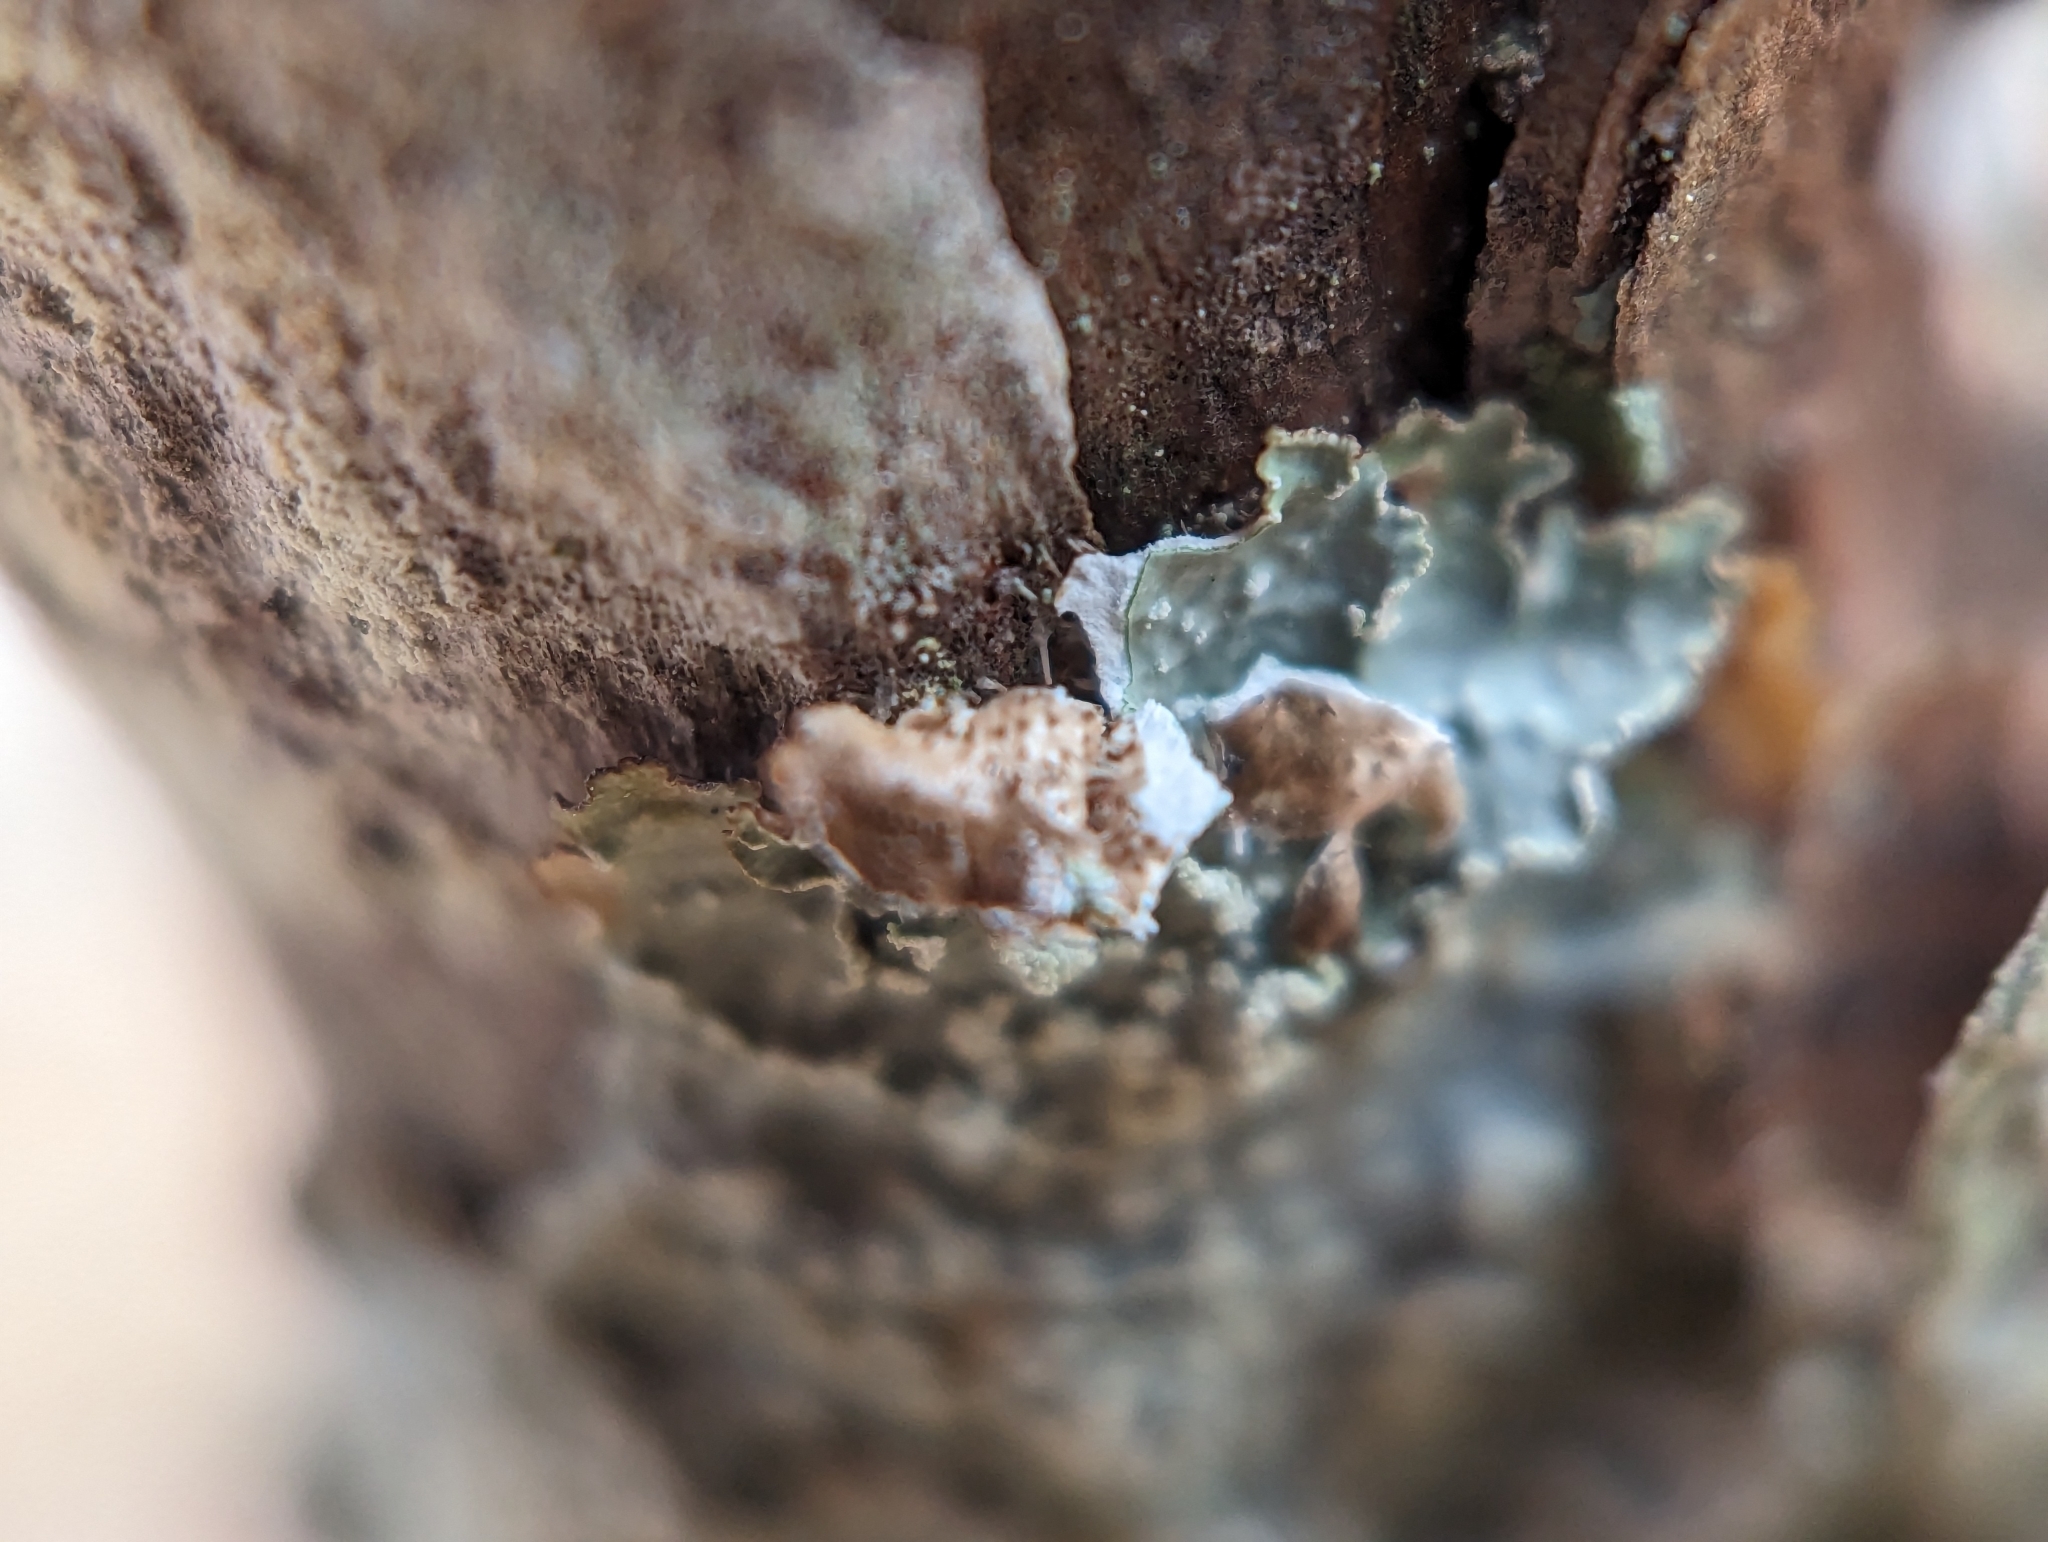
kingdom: Fungi
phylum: Ascomycota
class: Lecanoromycetes
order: Lecanorales
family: Parmeliaceae
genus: Punctelia
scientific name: Punctelia caseana
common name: Moondust speckled lichen
